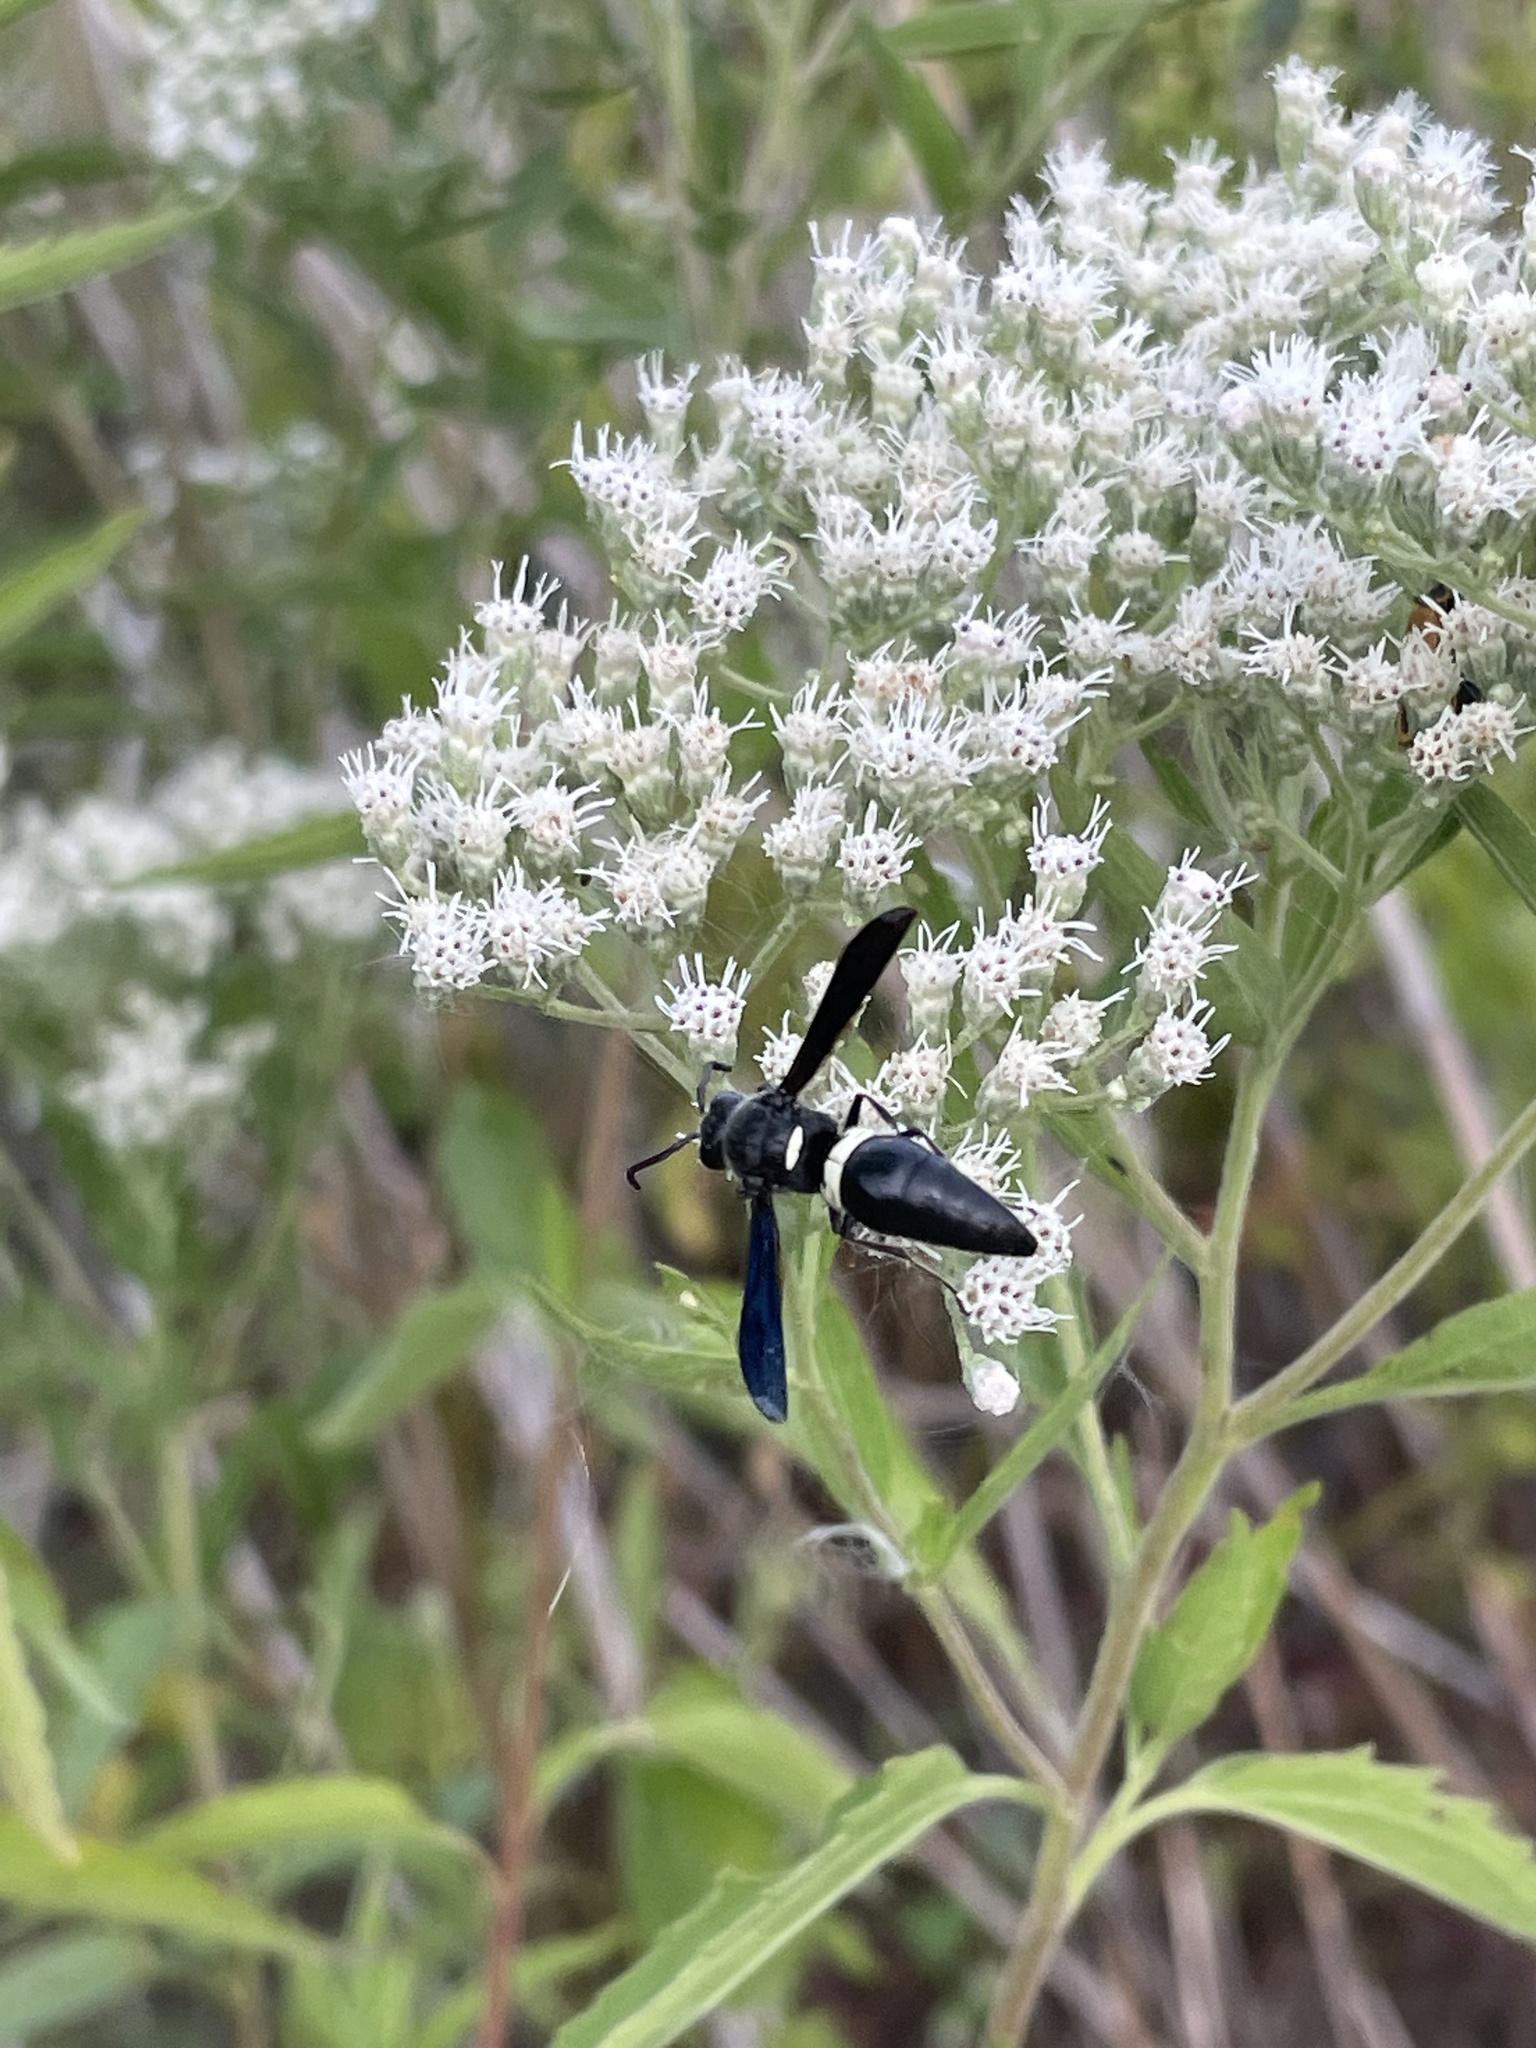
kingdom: Animalia
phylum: Arthropoda
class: Insecta
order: Hymenoptera
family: Eumenidae
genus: Monobia
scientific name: Monobia quadridens
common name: Four-toothed mason wasp
